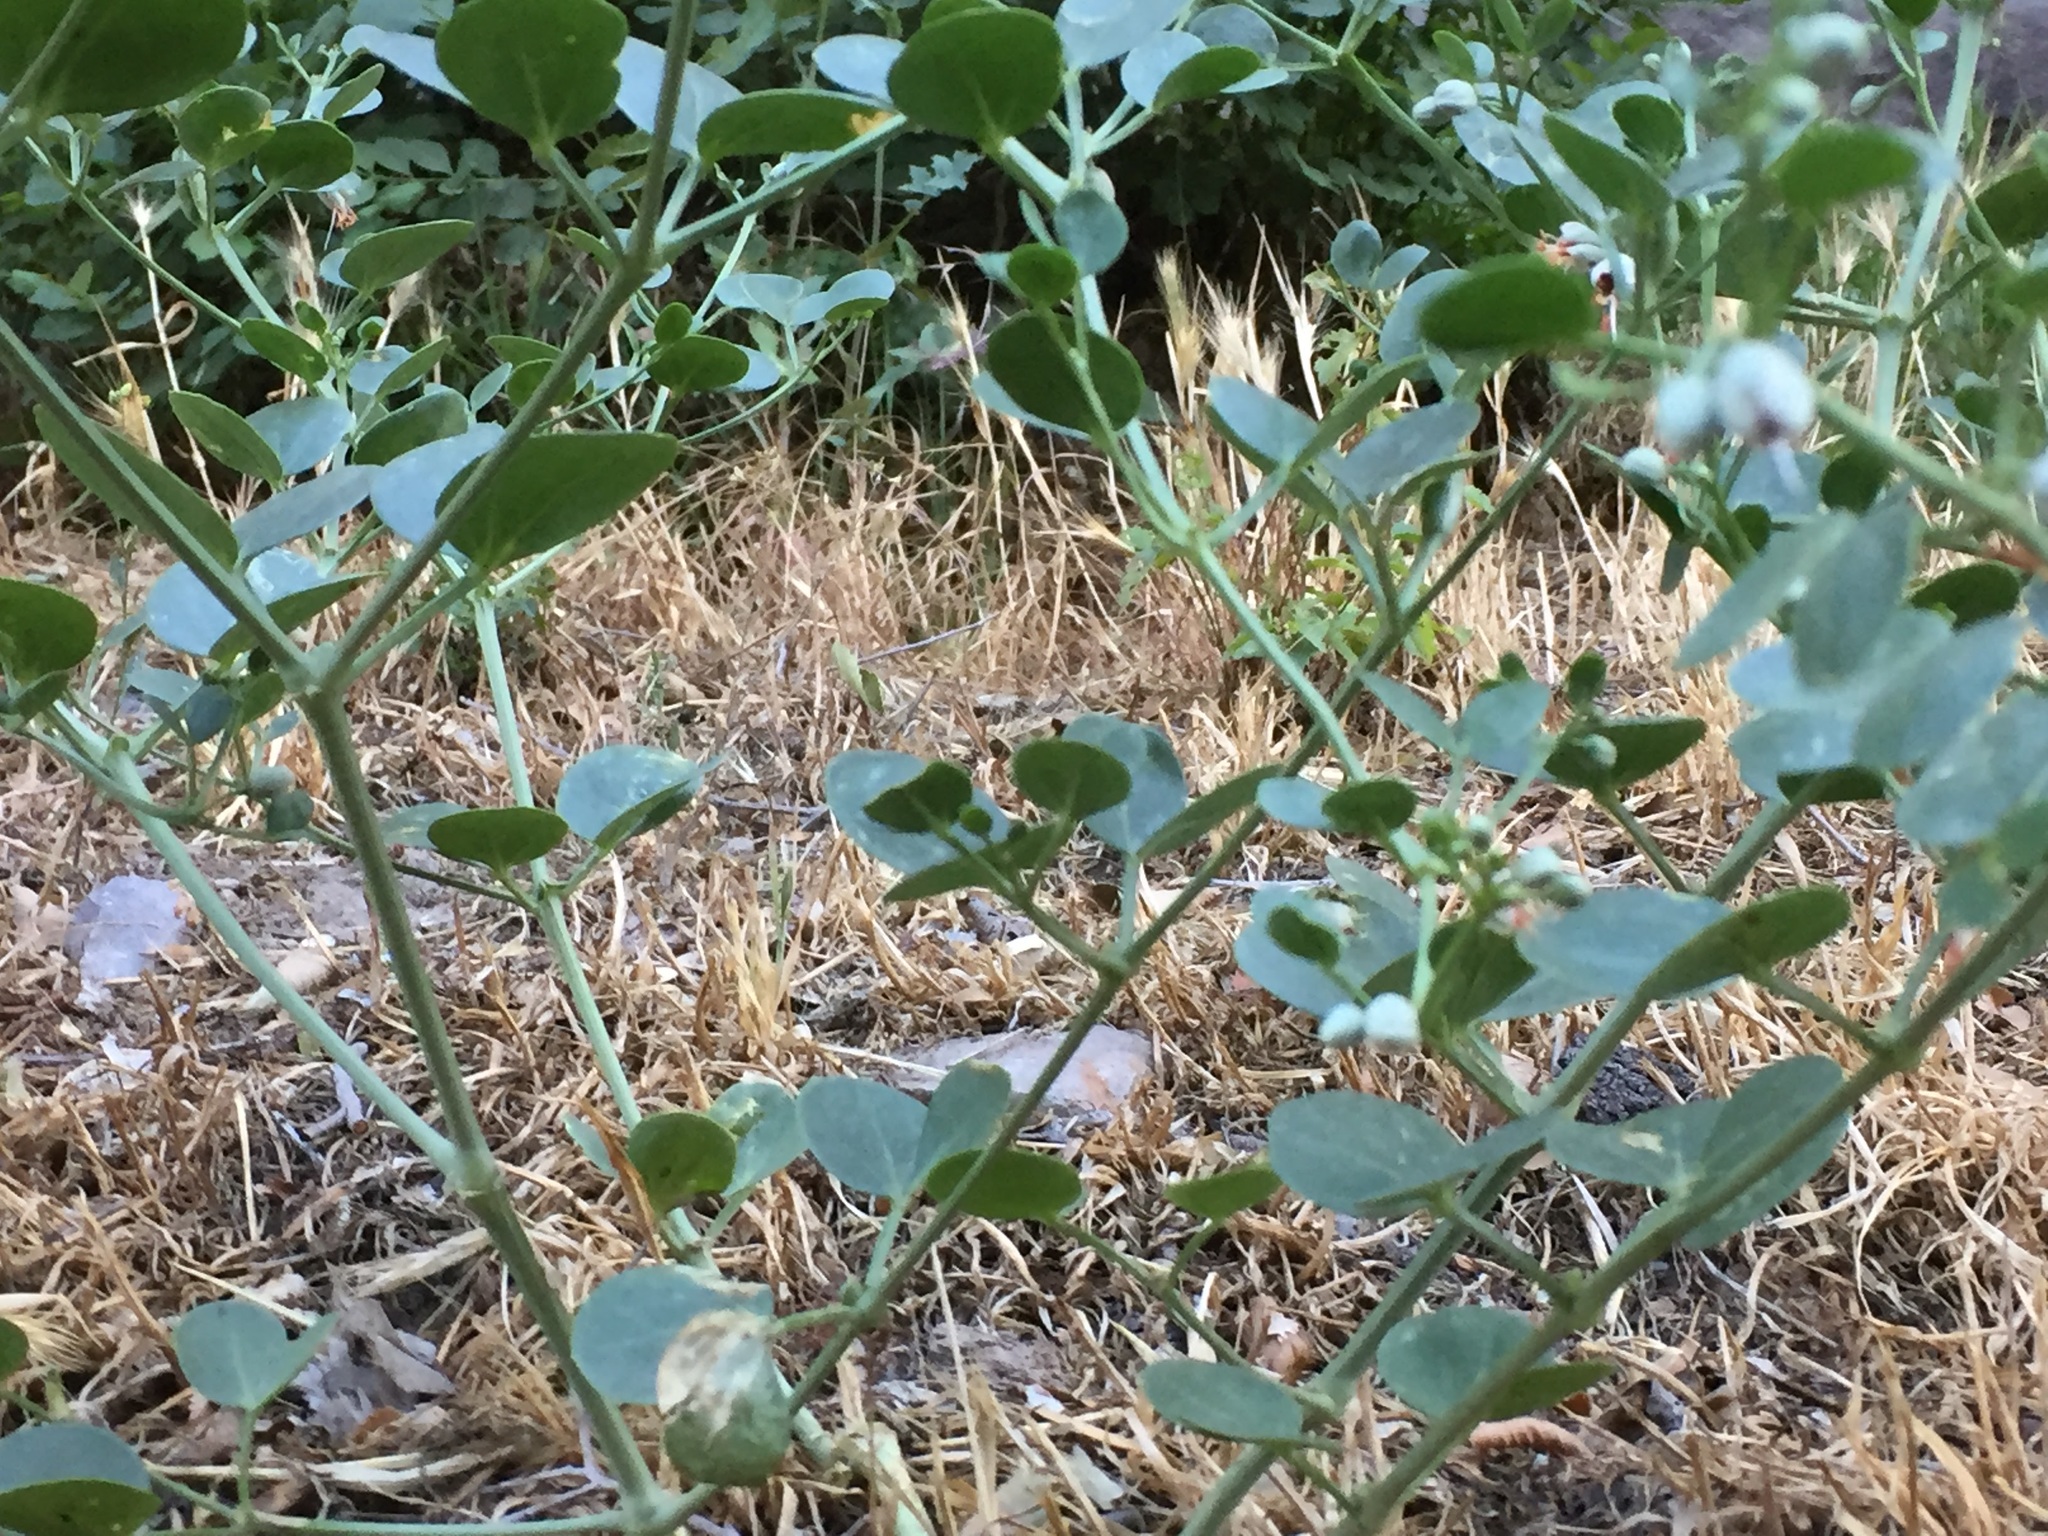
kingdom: Plantae
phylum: Tracheophyta
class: Magnoliopsida
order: Zygophyllales
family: Zygophyllaceae
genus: Zygophyllum
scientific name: Zygophyllum fabago
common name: Syrian beancaper
